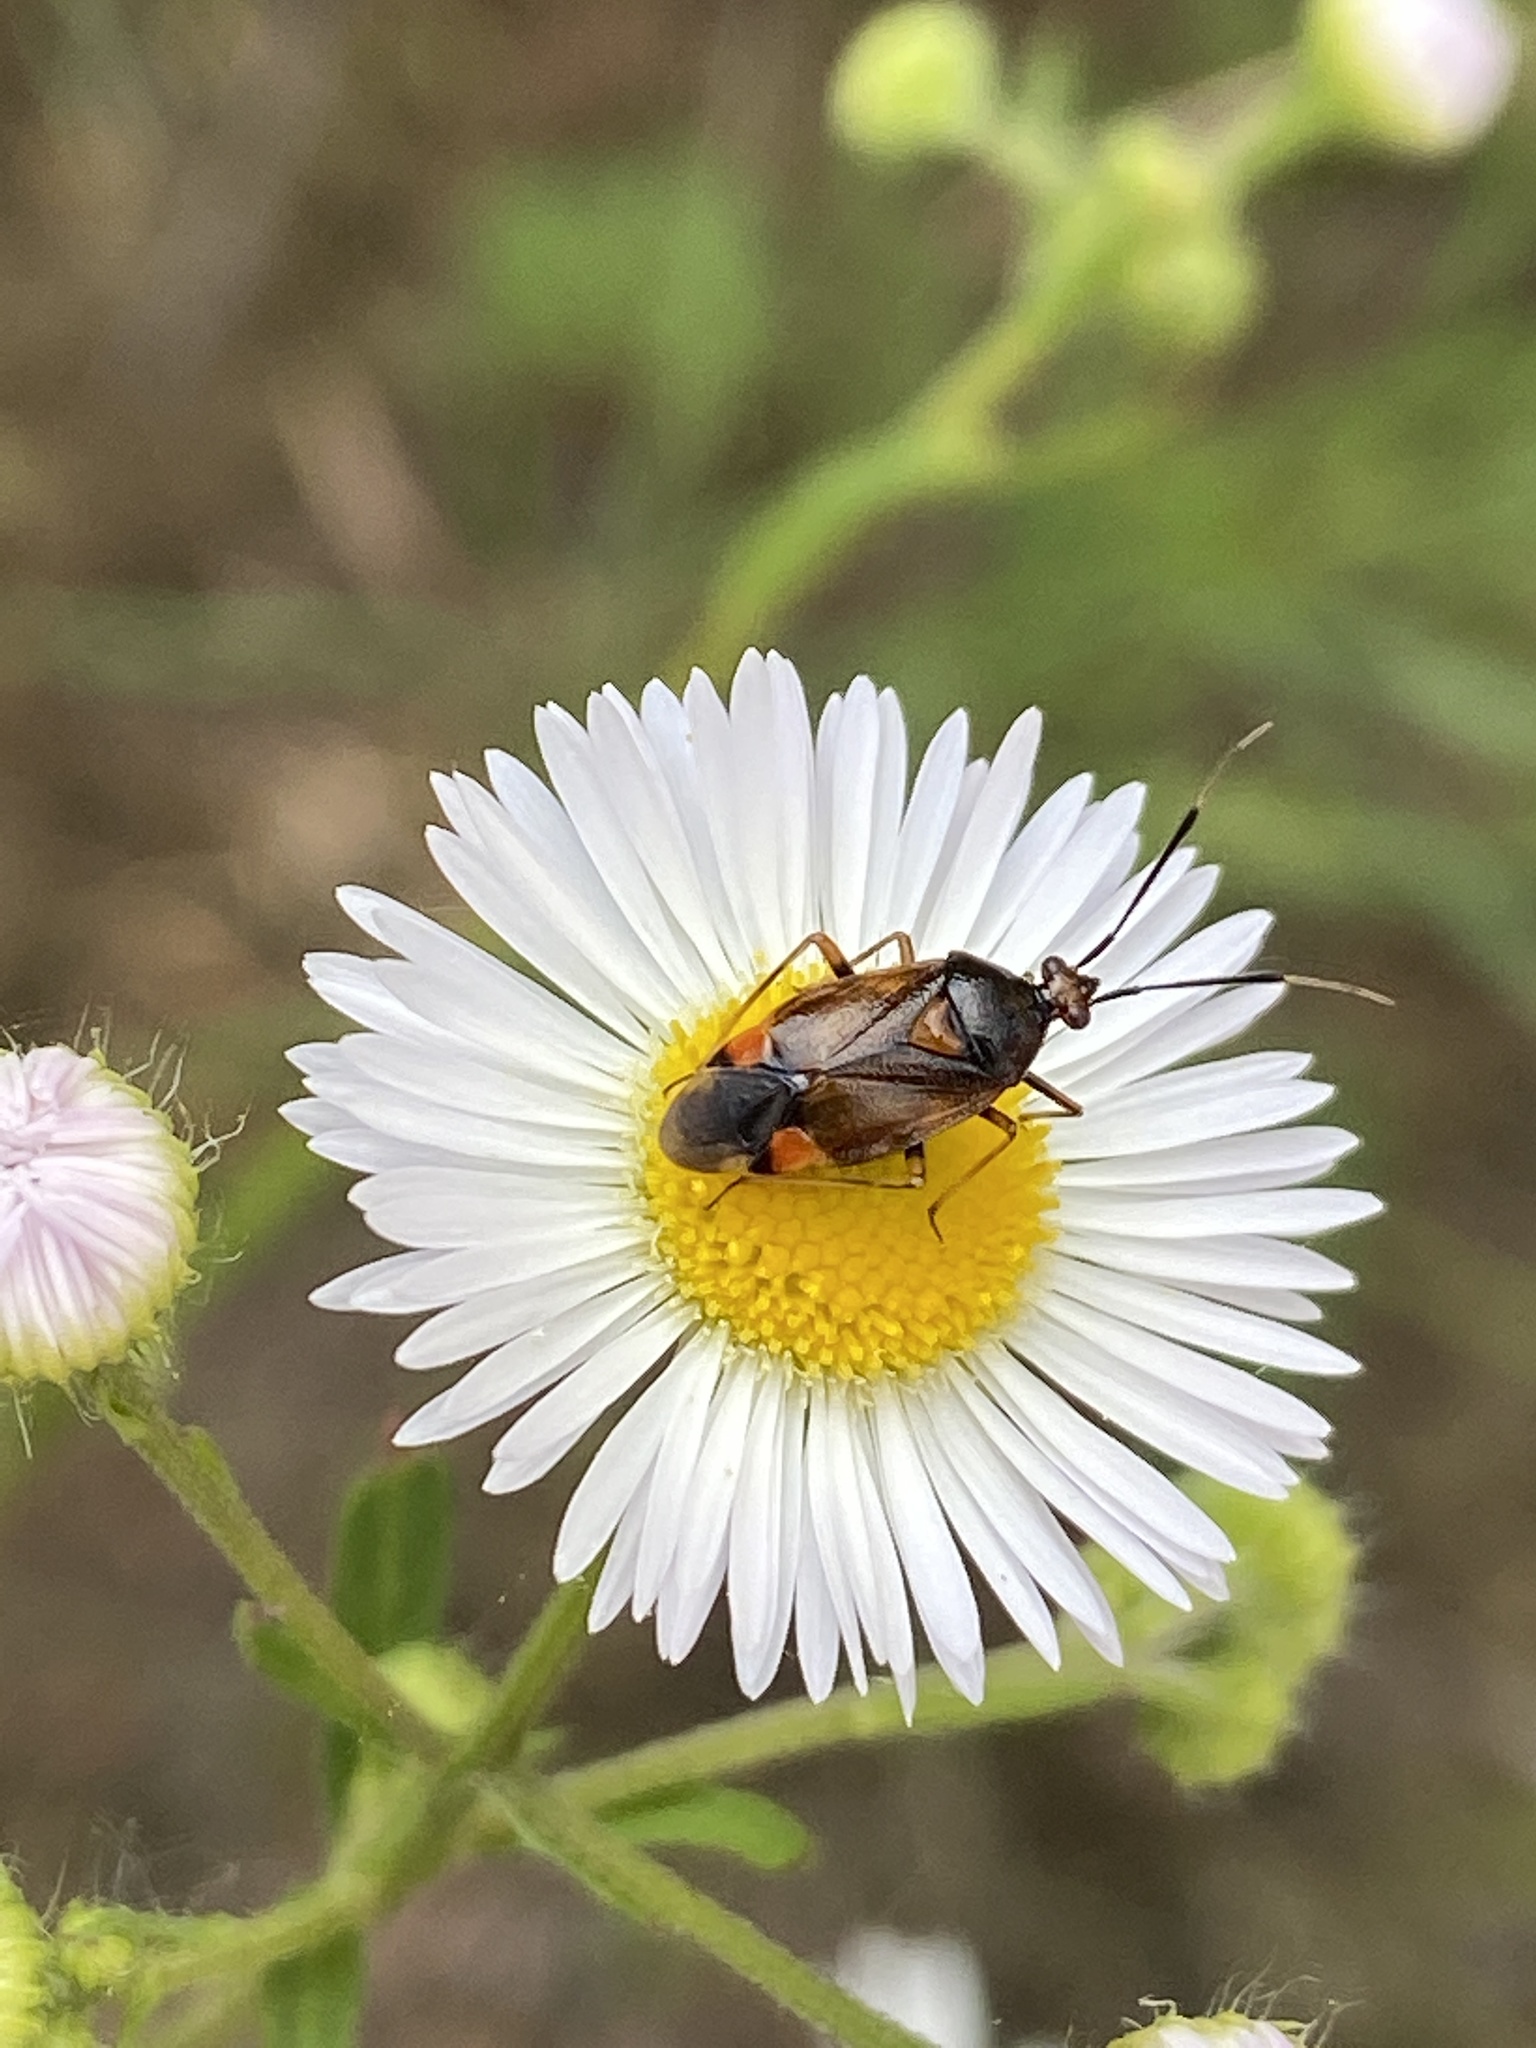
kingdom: Animalia
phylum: Arthropoda
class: Insecta
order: Hemiptera
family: Miridae
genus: Deraeocoris
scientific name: Deraeocoris ruber
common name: Plant bug
